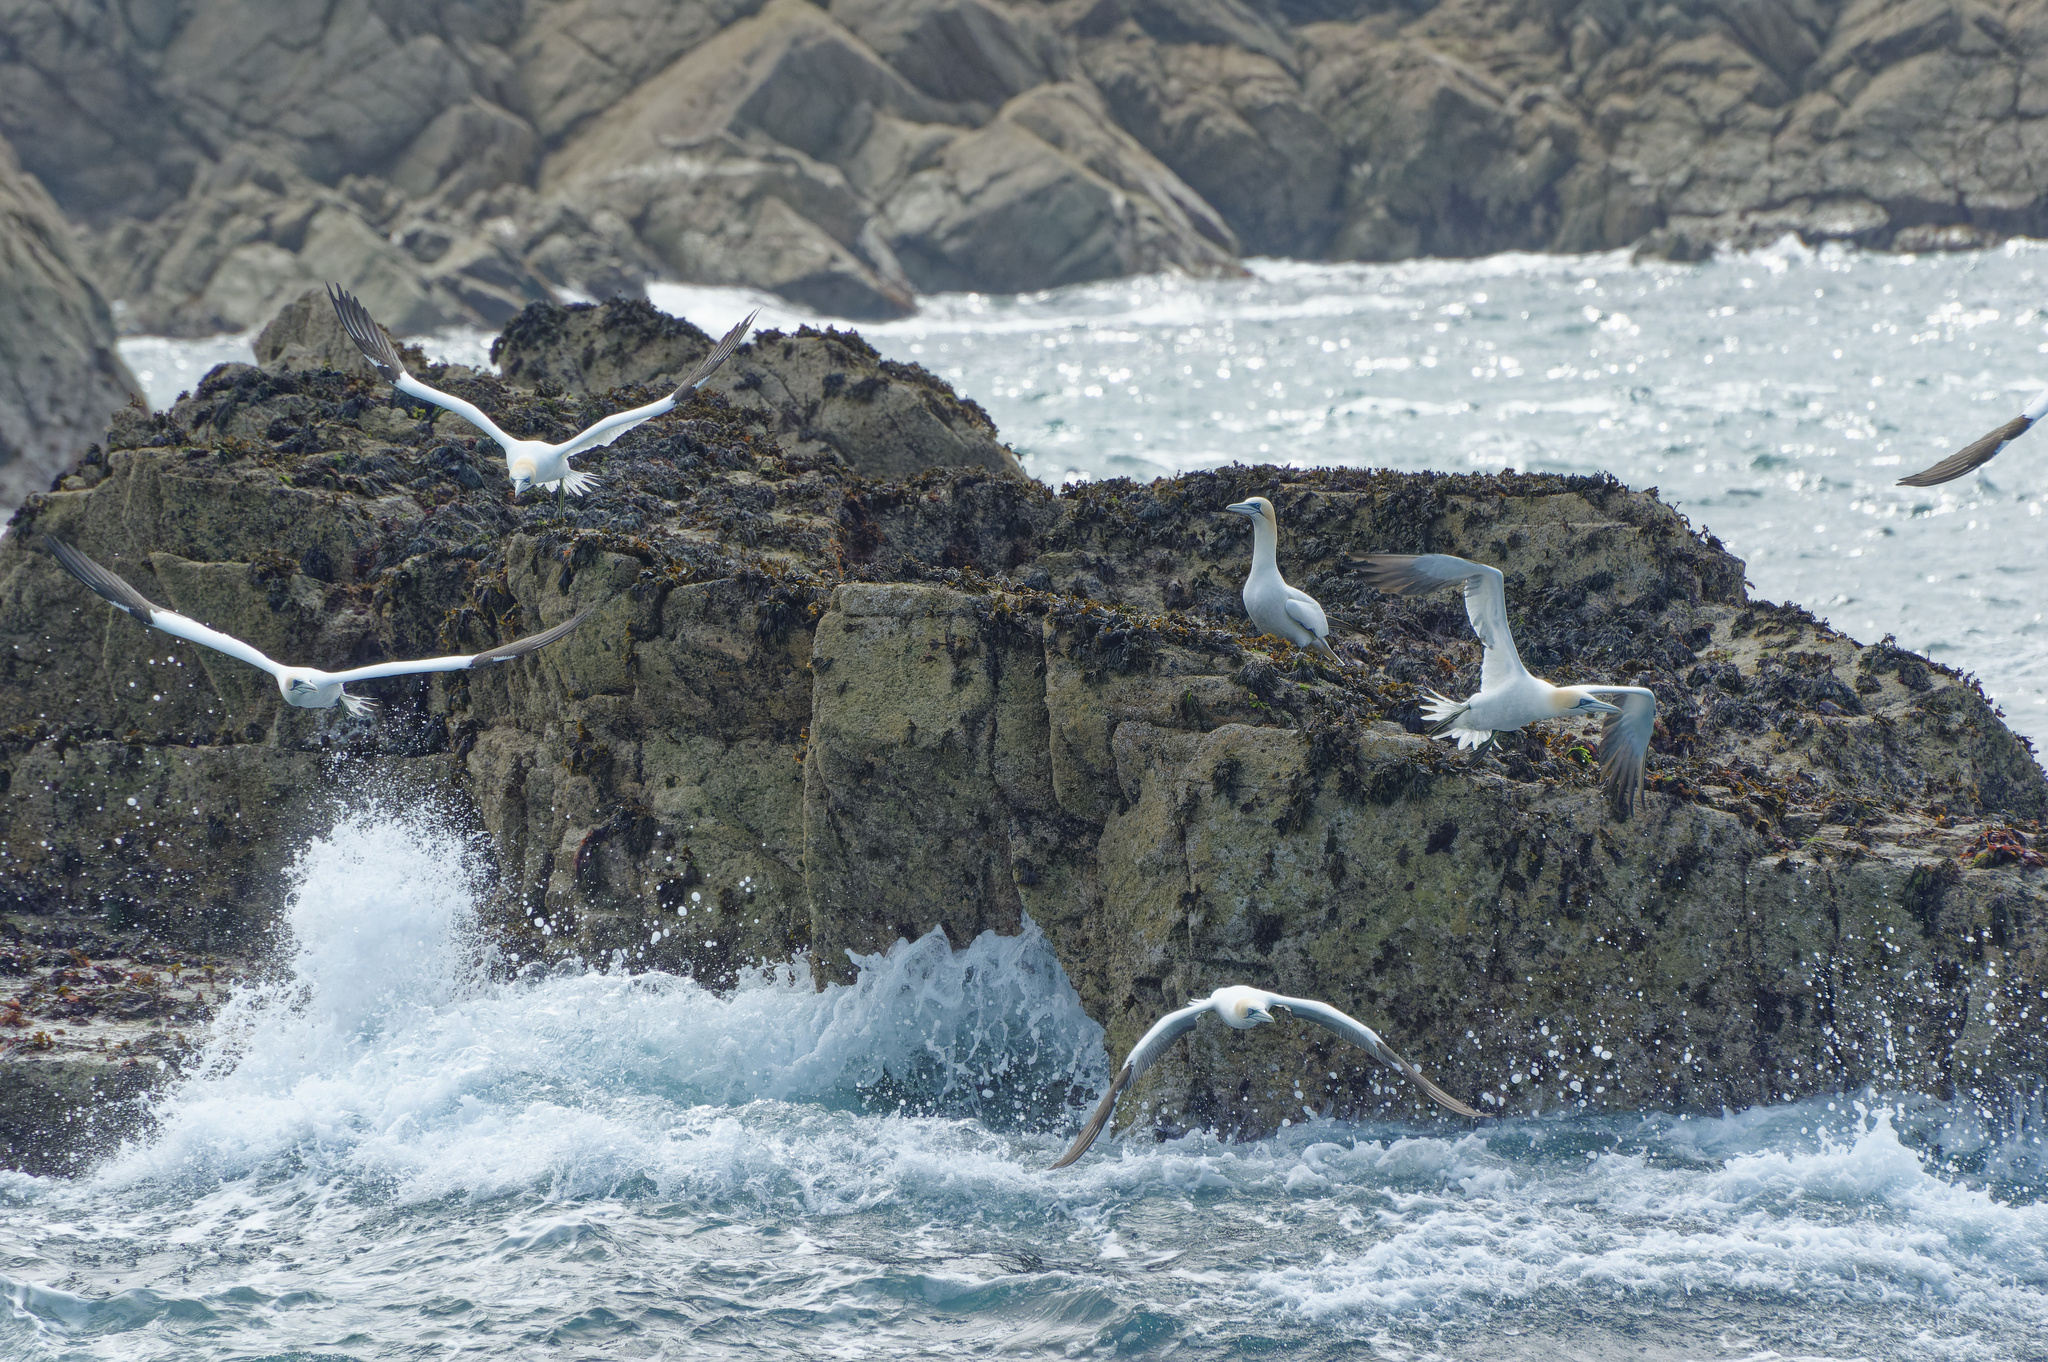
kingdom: Animalia
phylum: Chordata
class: Aves
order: Suliformes
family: Sulidae
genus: Morus
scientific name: Morus bassanus
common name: Northern gannet
